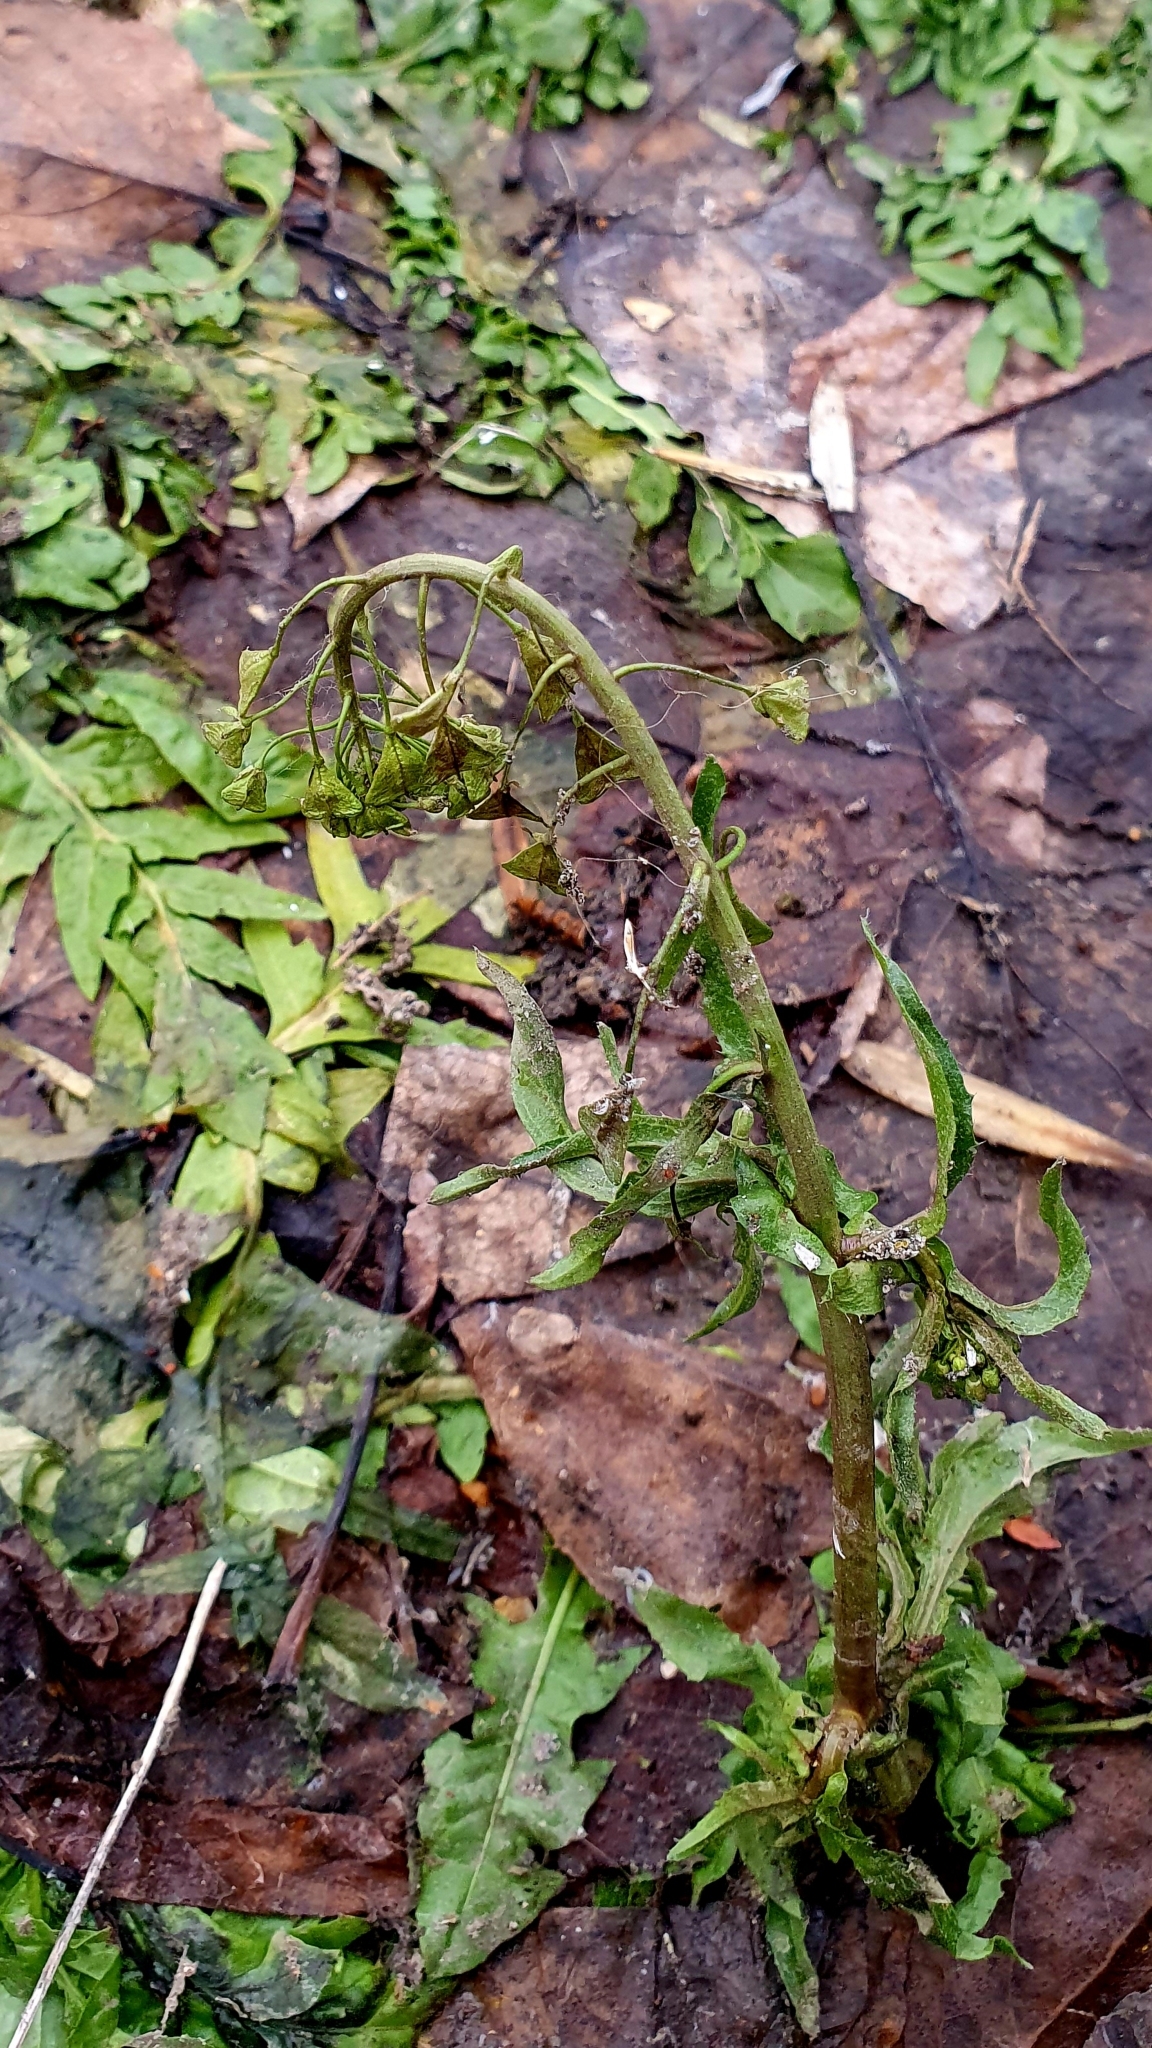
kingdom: Plantae
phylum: Tracheophyta
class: Magnoliopsida
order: Brassicales
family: Brassicaceae
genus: Capsella
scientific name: Capsella bursa-pastoris
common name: Shepherd's purse
